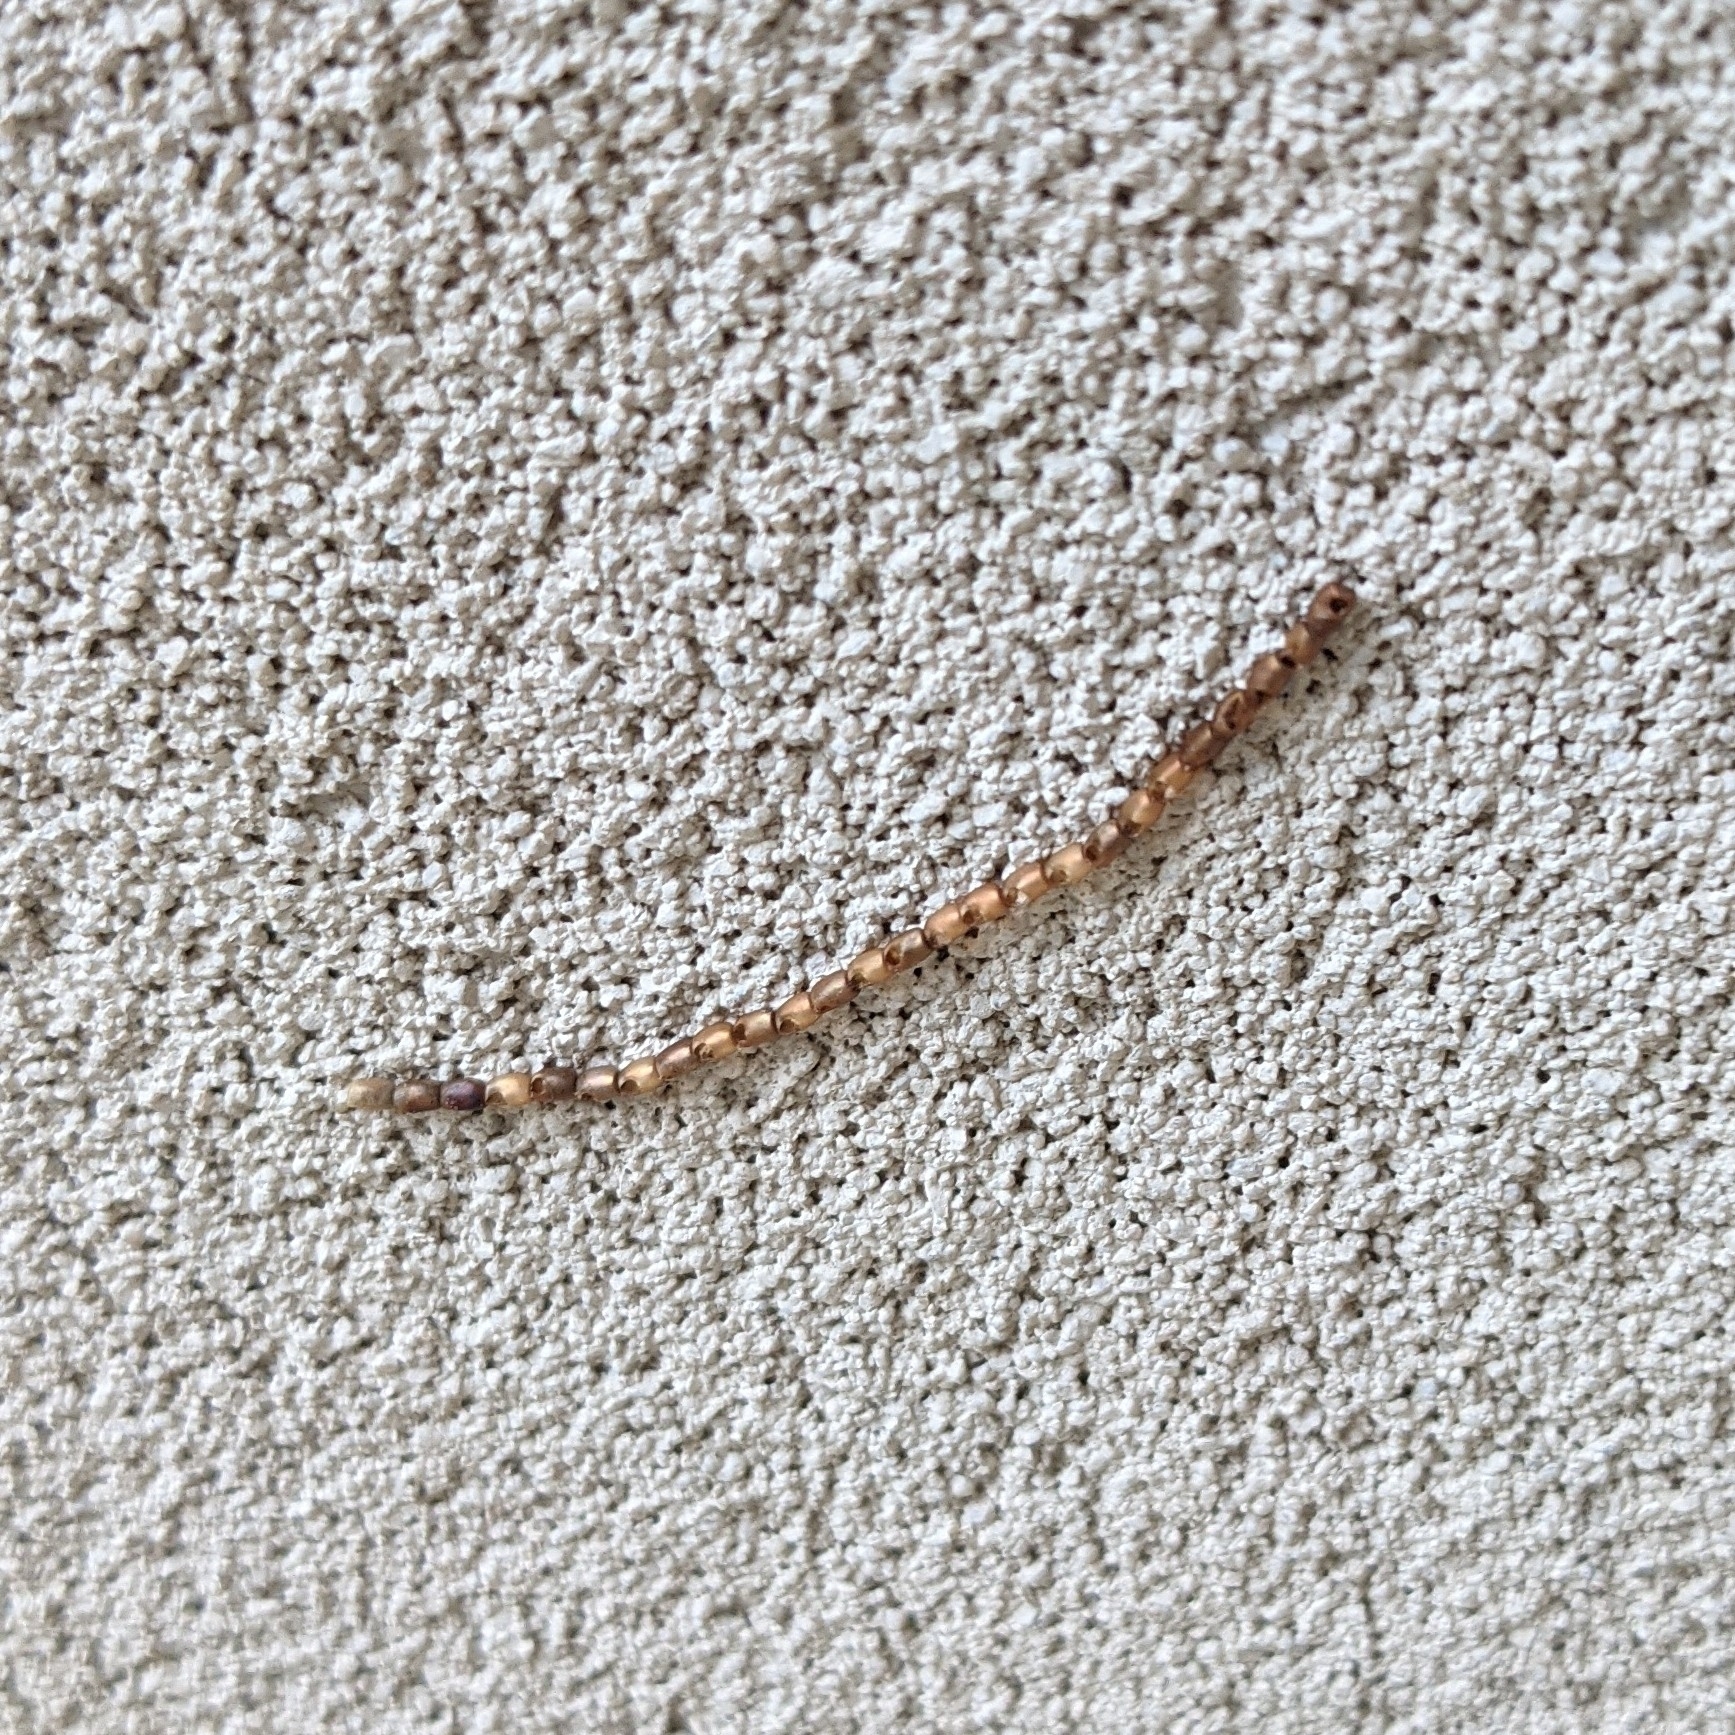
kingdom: Animalia
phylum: Arthropoda
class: Insecta
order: Hemiptera
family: Coreidae
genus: Leptoglossus
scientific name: Leptoglossus
